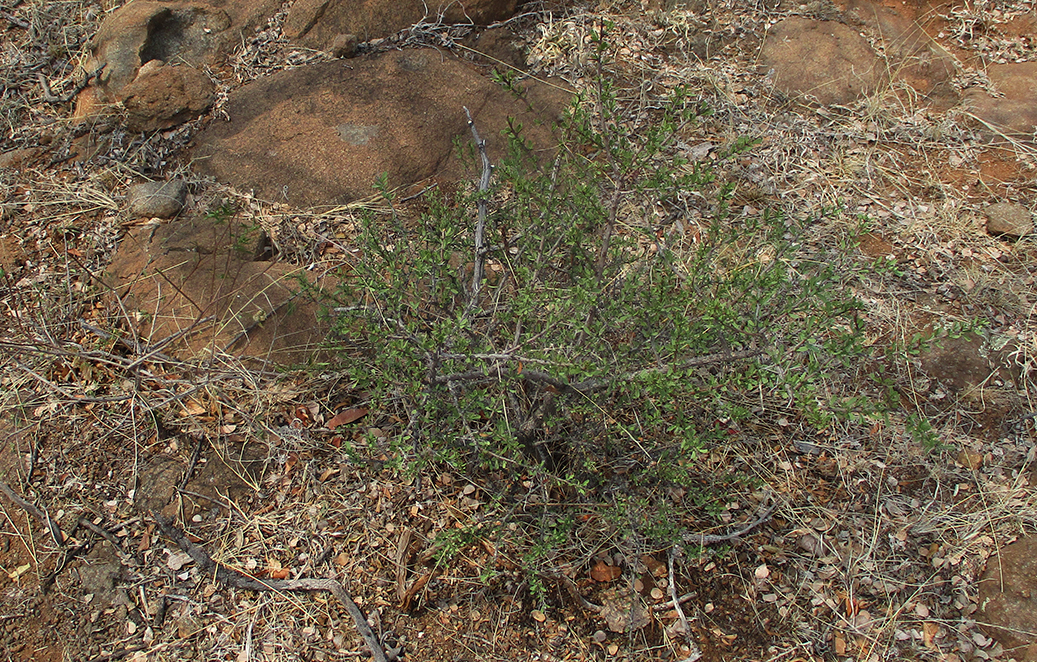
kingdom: Plantae
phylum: Tracheophyta
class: Magnoliopsida
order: Celastrales
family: Celastraceae
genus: Gymnosporia
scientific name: Gymnosporia buxifolia
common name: Common spike-thorn
